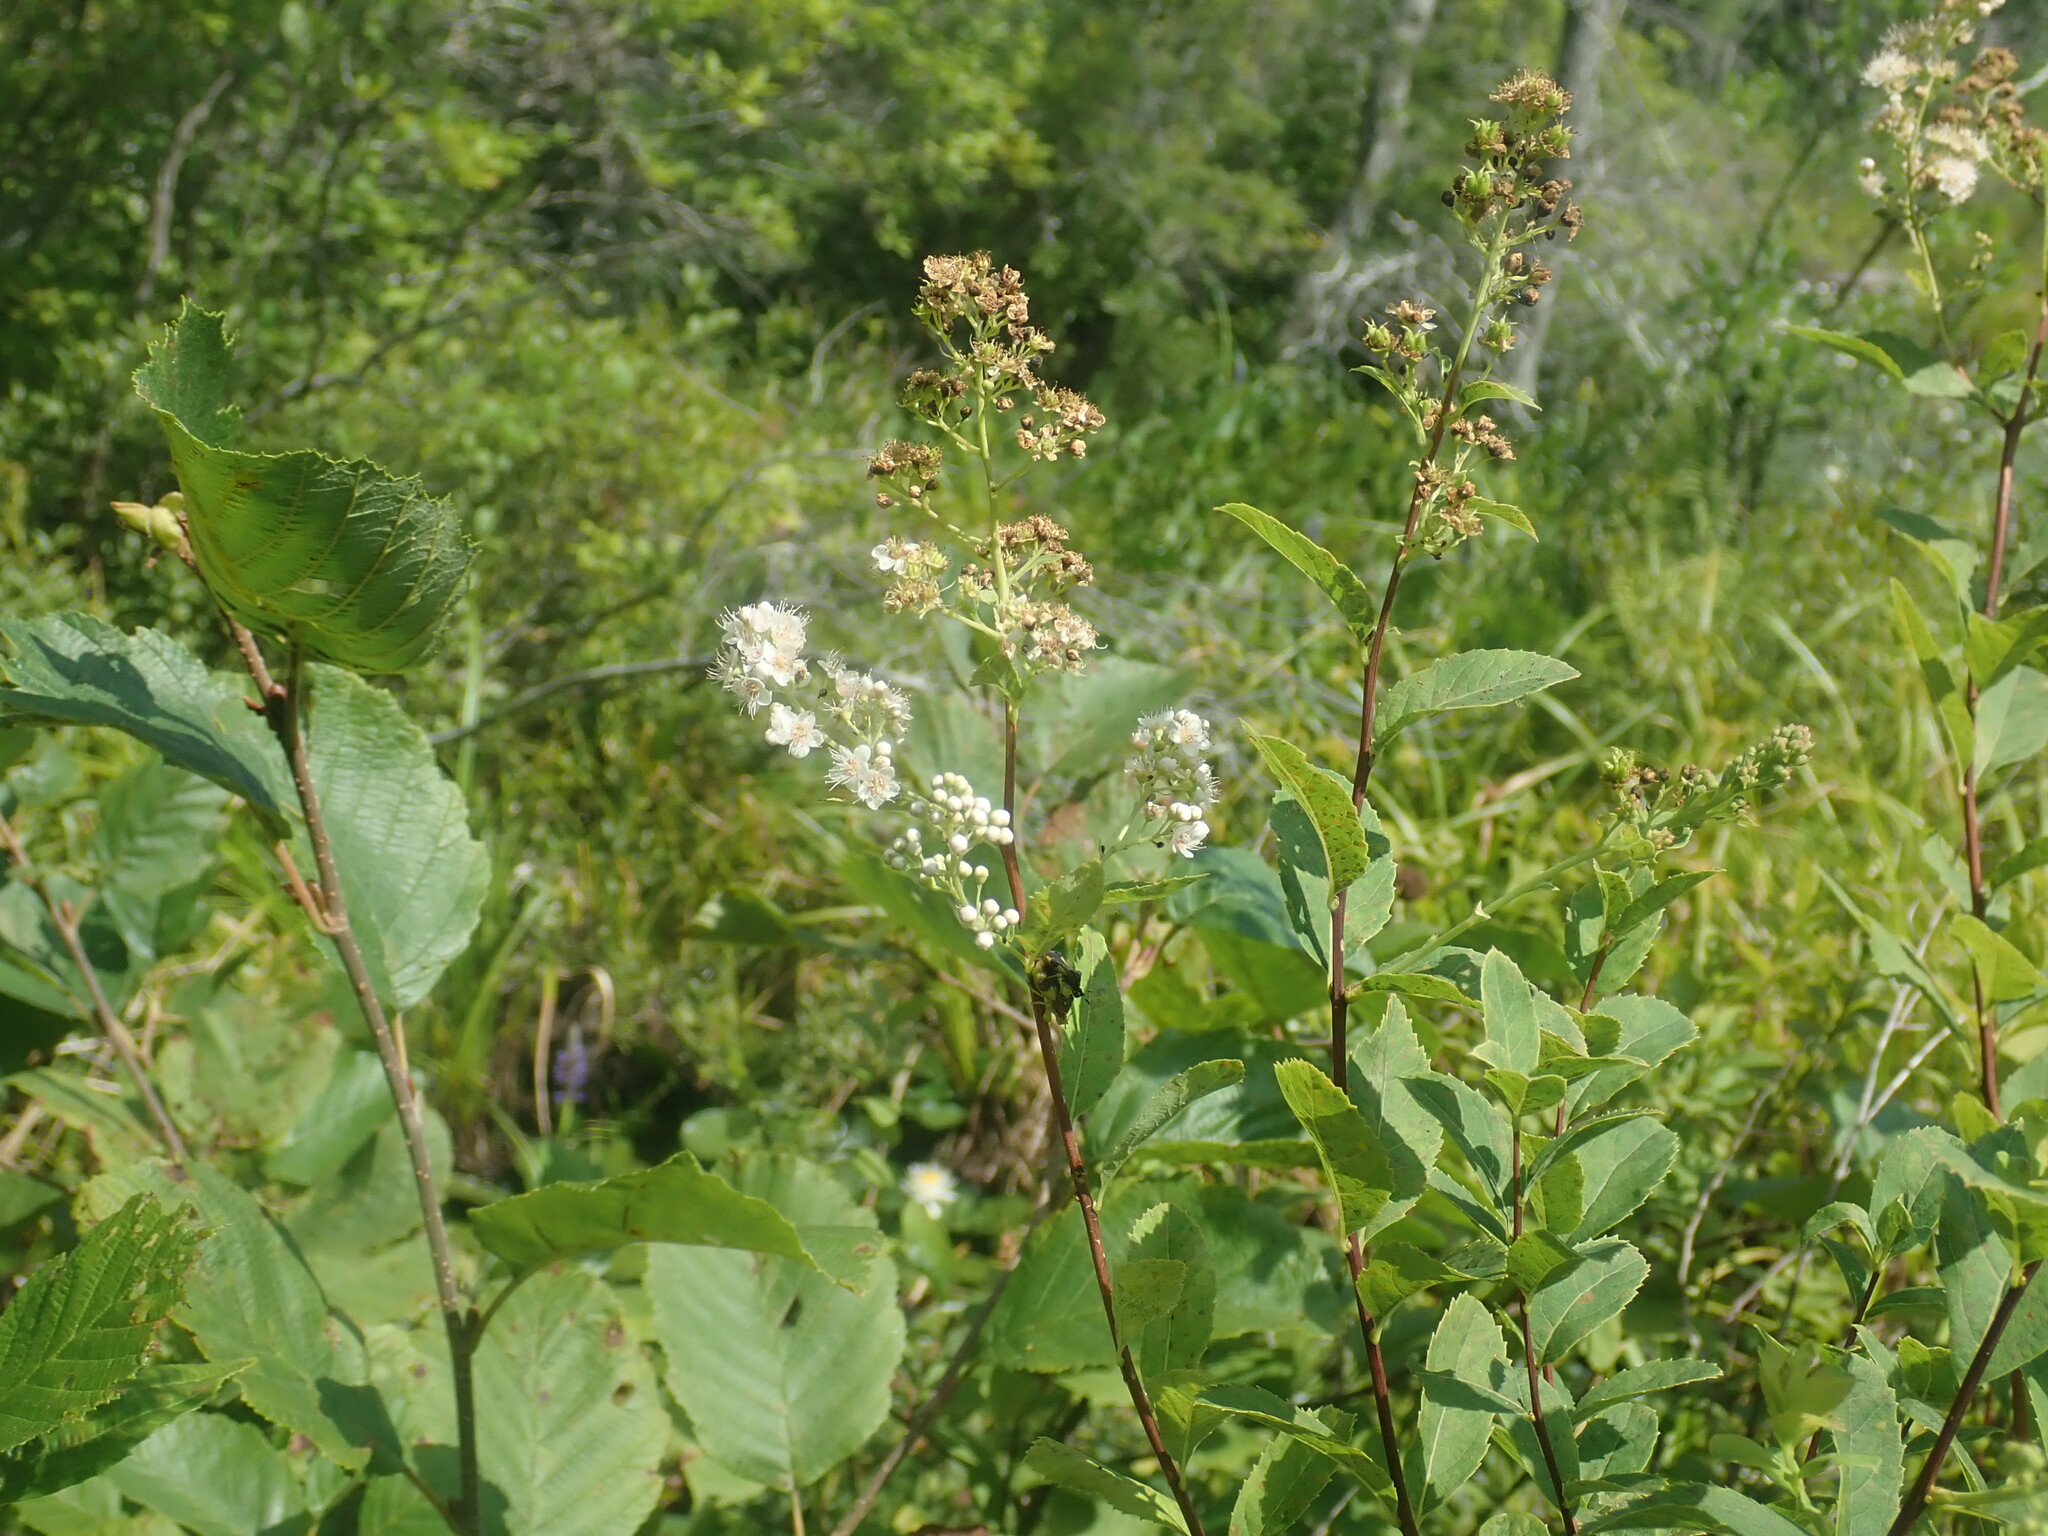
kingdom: Plantae
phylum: Tracheophyta
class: Magnoliopsida
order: Rosales
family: Rosaceae
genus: Spiraea
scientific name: Spiraea alba
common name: Pale bridewort
